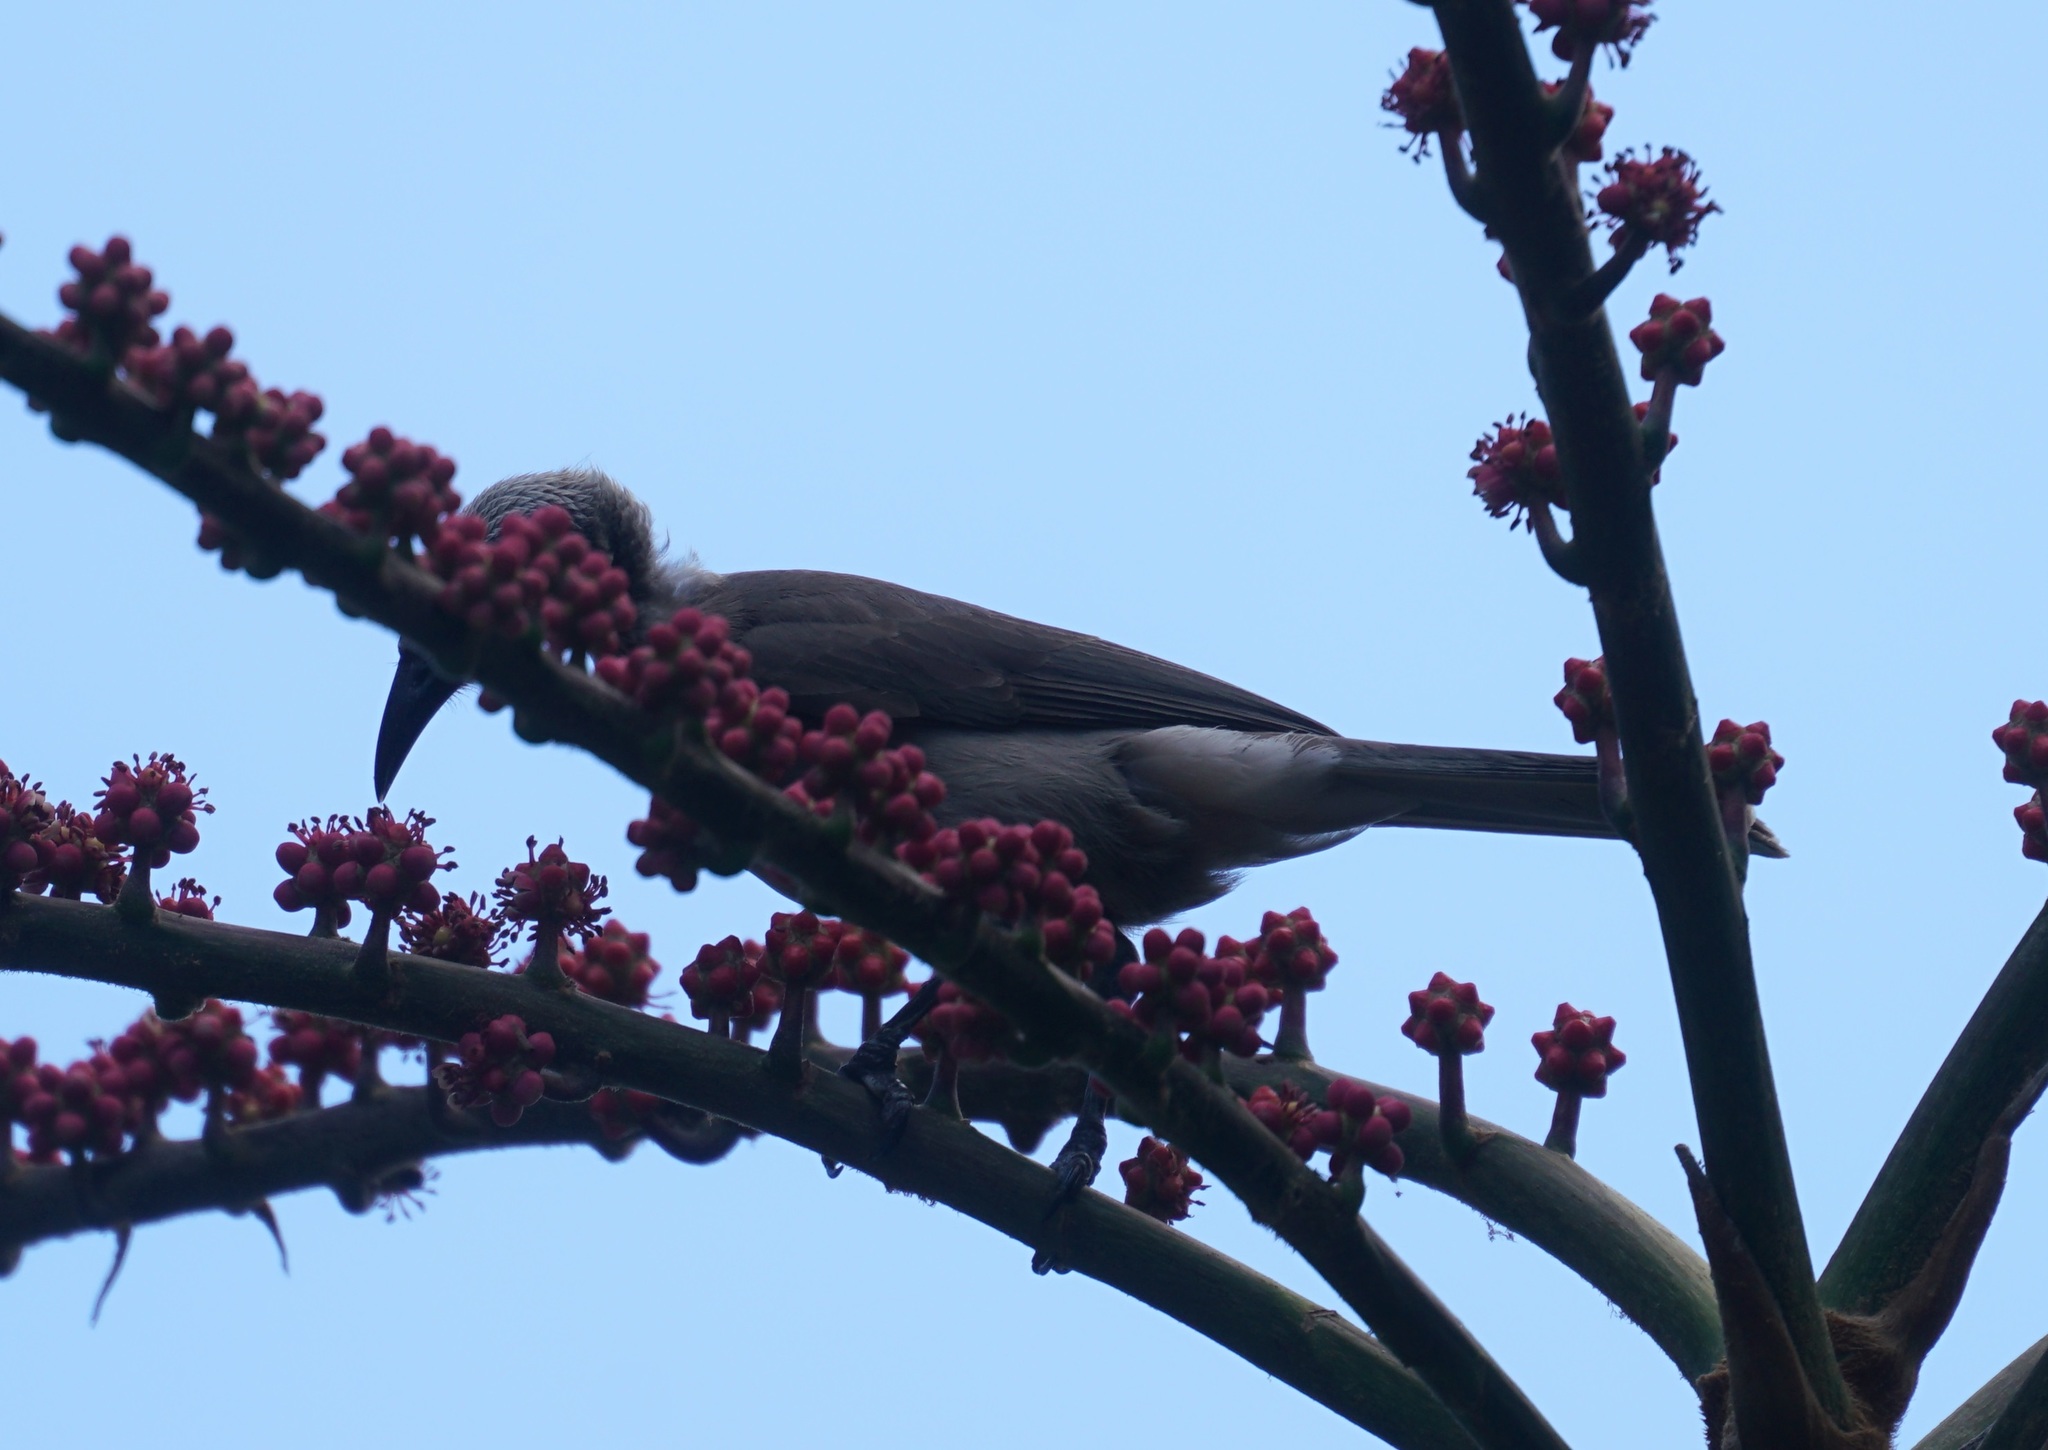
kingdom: Animalia
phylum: Chordata
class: Aves
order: Passeriformes
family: Meliphagidae
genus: Philemon
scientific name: Philemon yorki
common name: Hornbill friarbird
